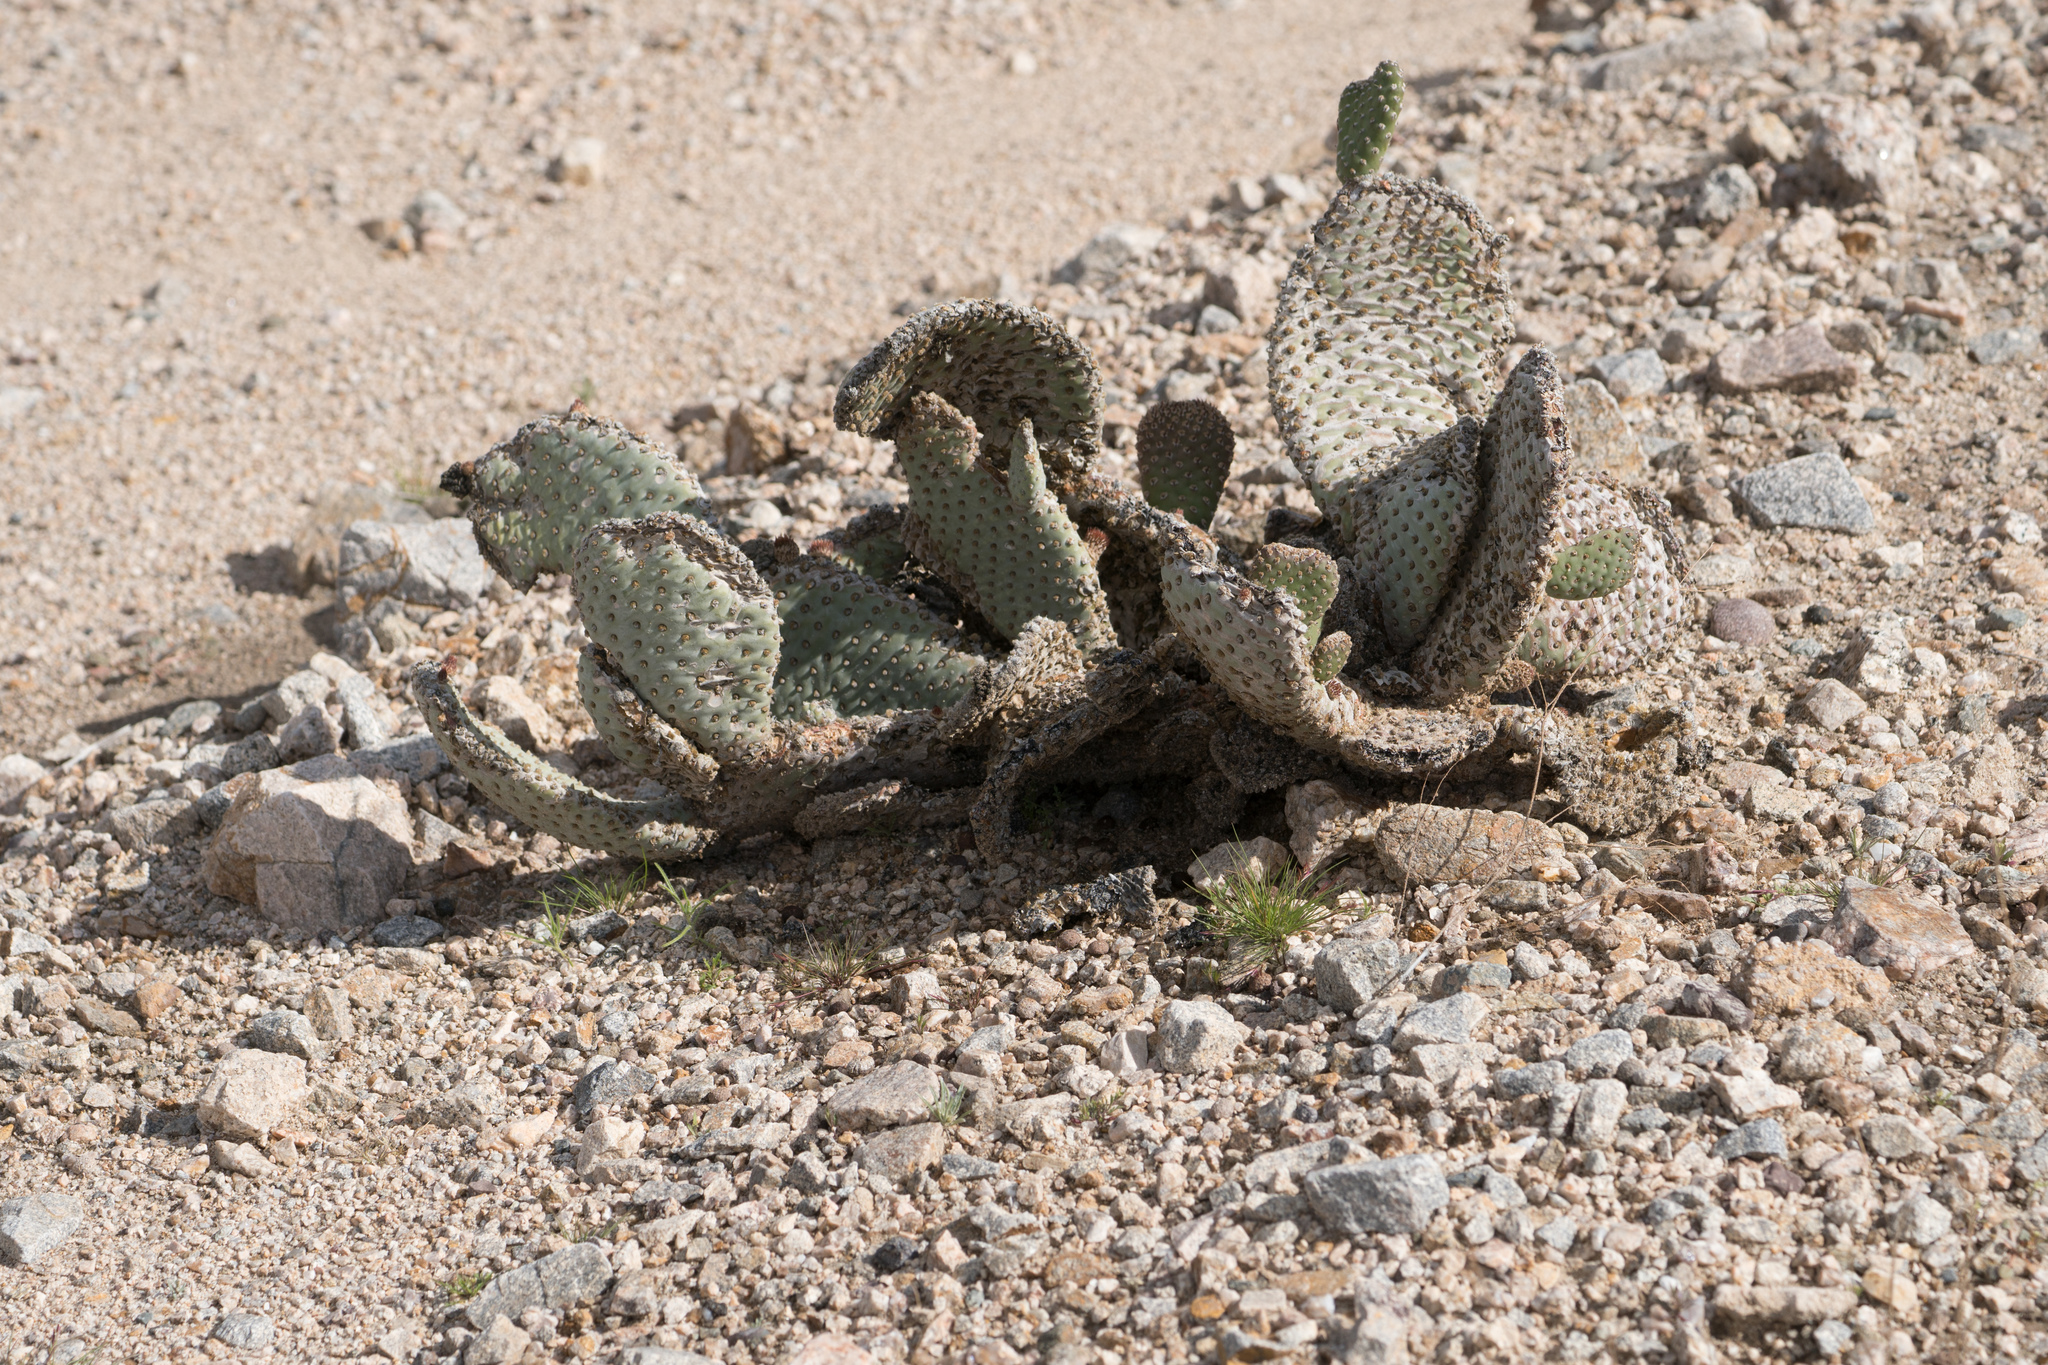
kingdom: Plantae
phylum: Tracheophyta
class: Magnoliopsida
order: Caryophyllales
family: Cactaceae
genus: Opuntia
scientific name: Opuntia basilaris
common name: Beavertail prickly-pear
